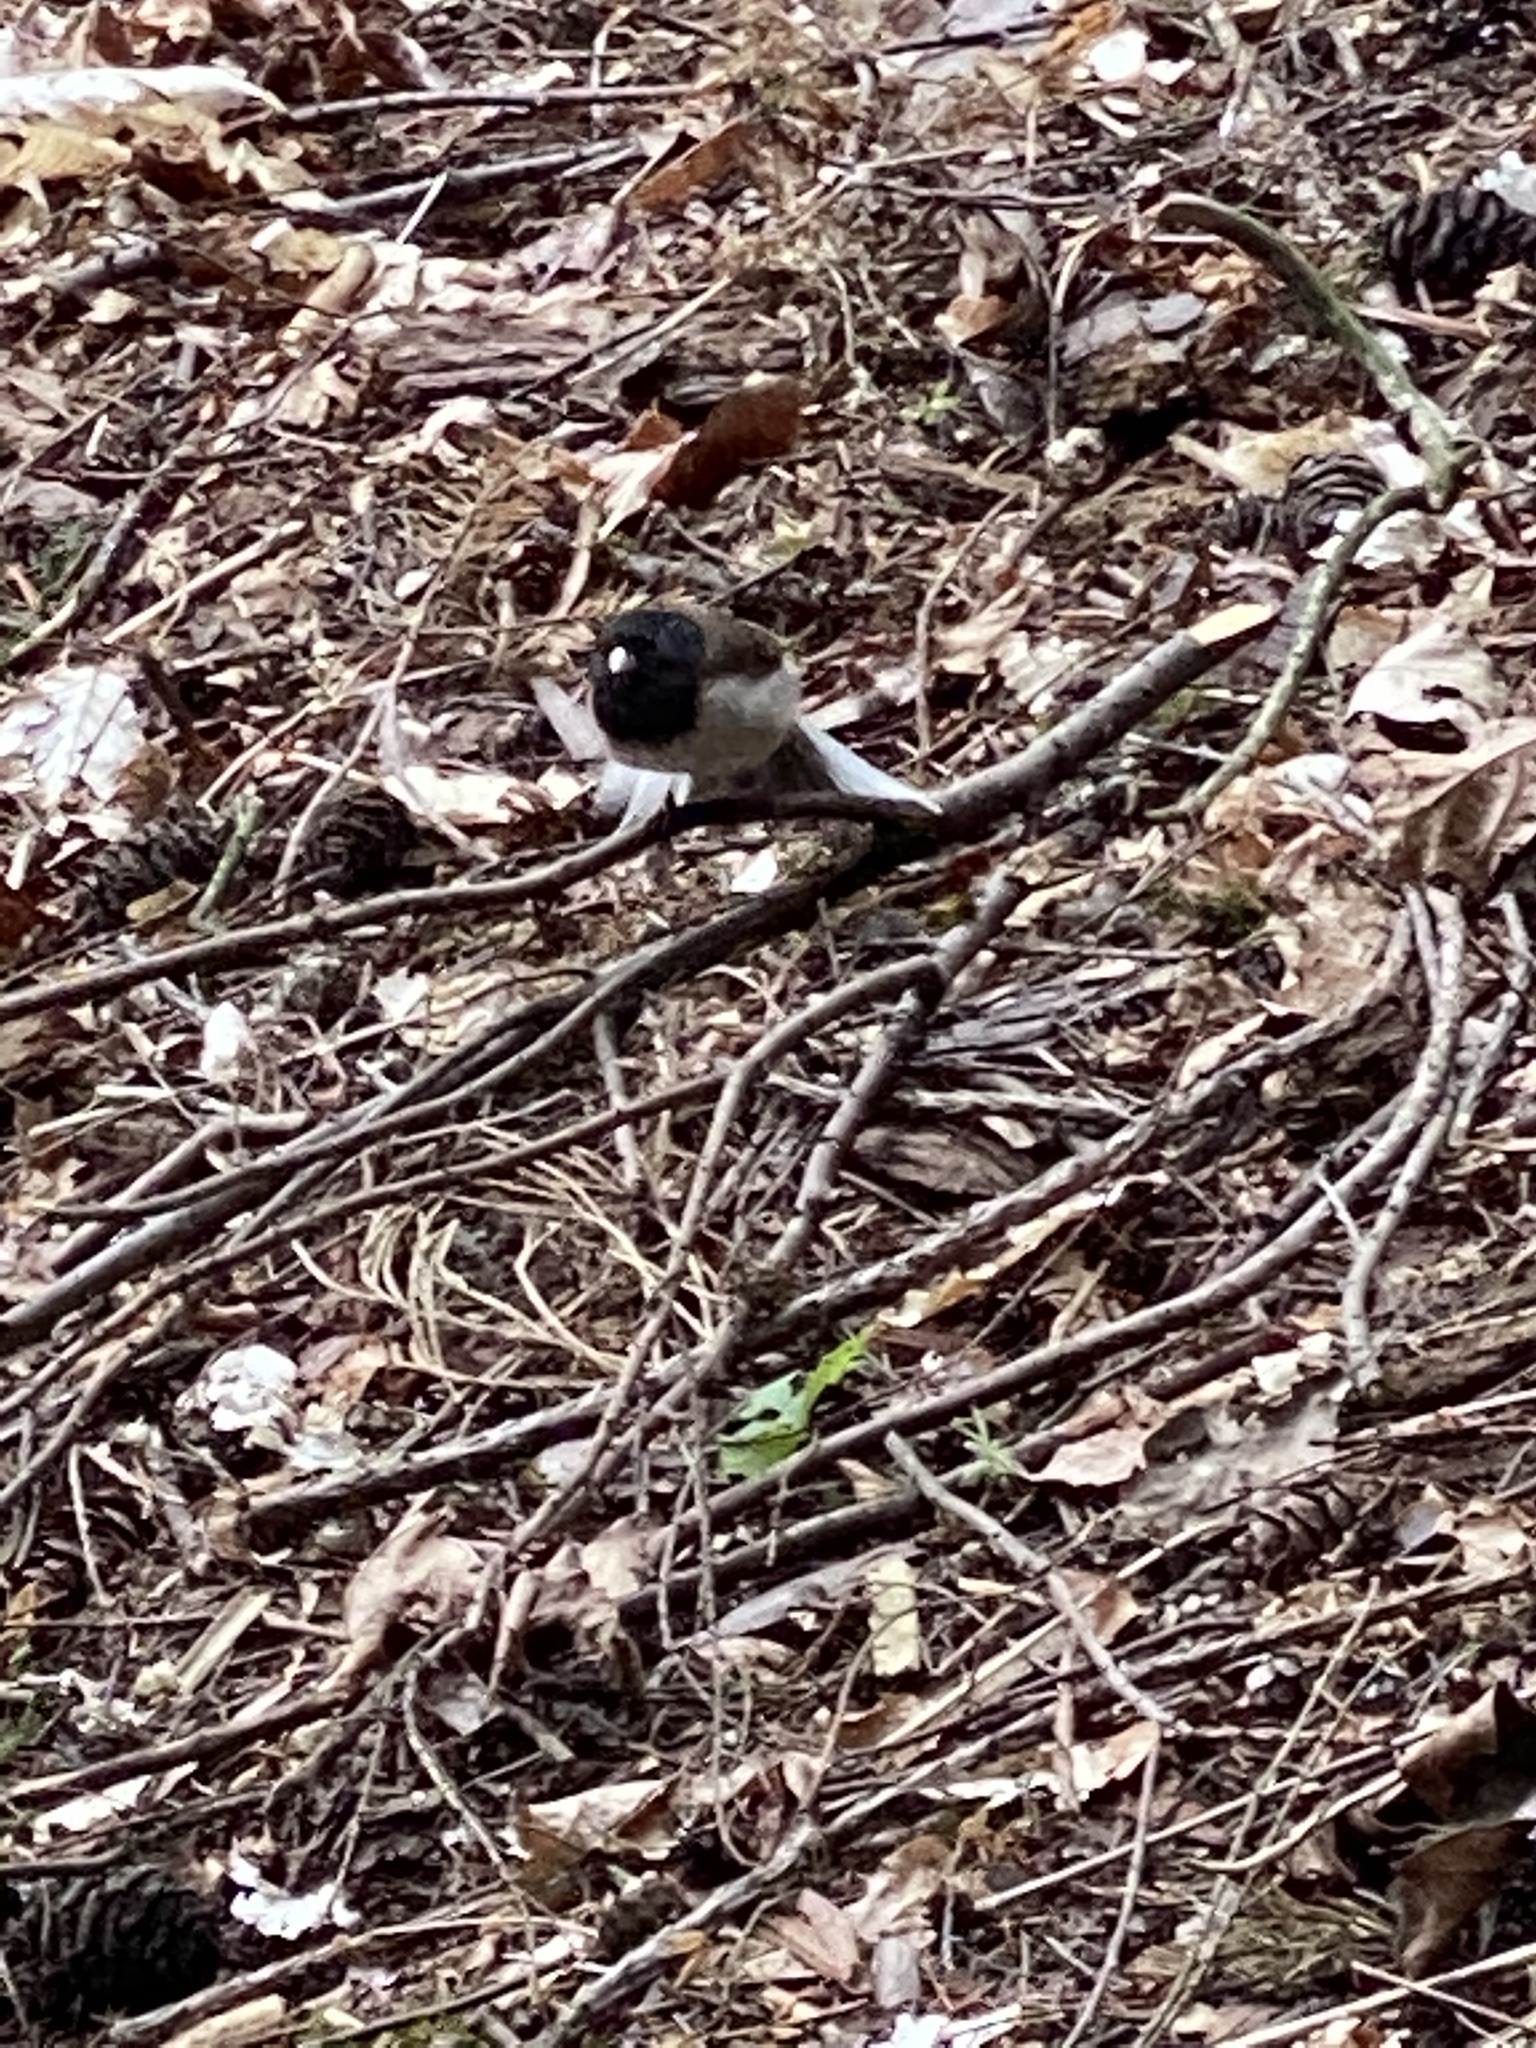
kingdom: Animalia
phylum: Chordata
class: Aves
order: Passeriformes
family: Passerellidae
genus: Junco
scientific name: Junco hyemalis
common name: Dark-eyed junco
